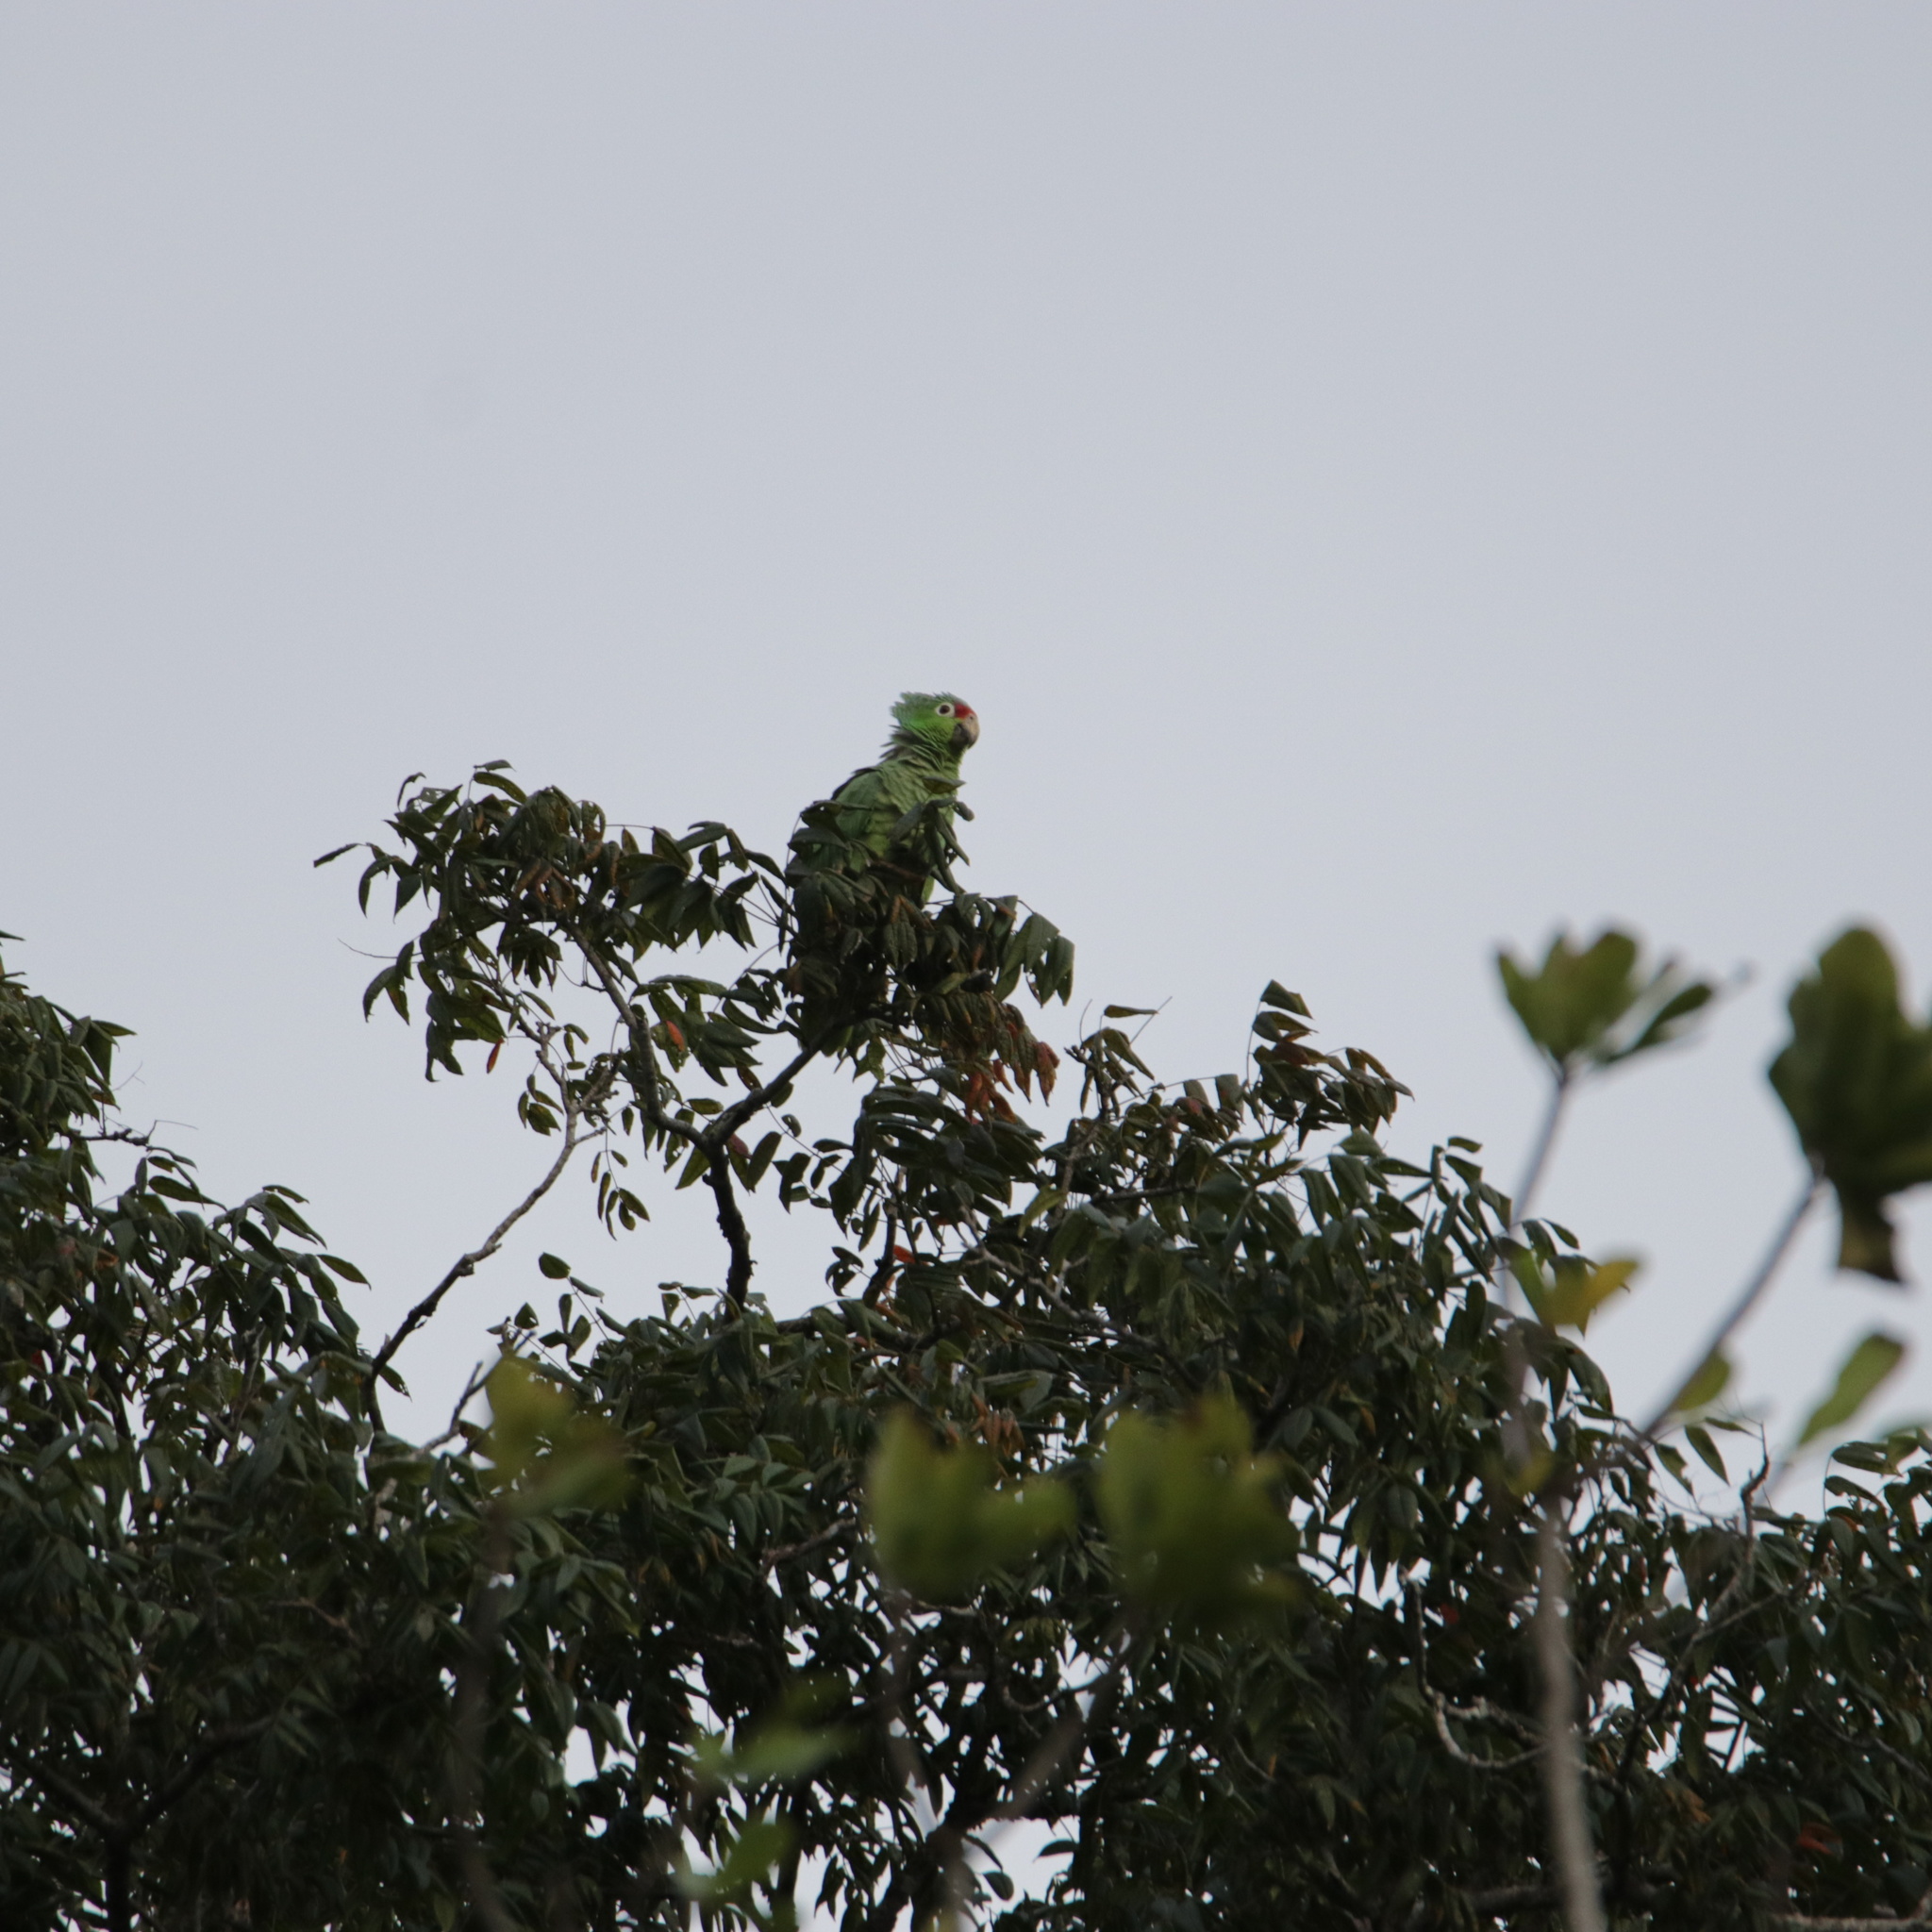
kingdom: Animalia
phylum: Chordata
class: Aves
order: Psittaciformes
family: Psittacidae
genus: Amazona
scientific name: Amazona autumnalis
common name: Red-lored amazon
